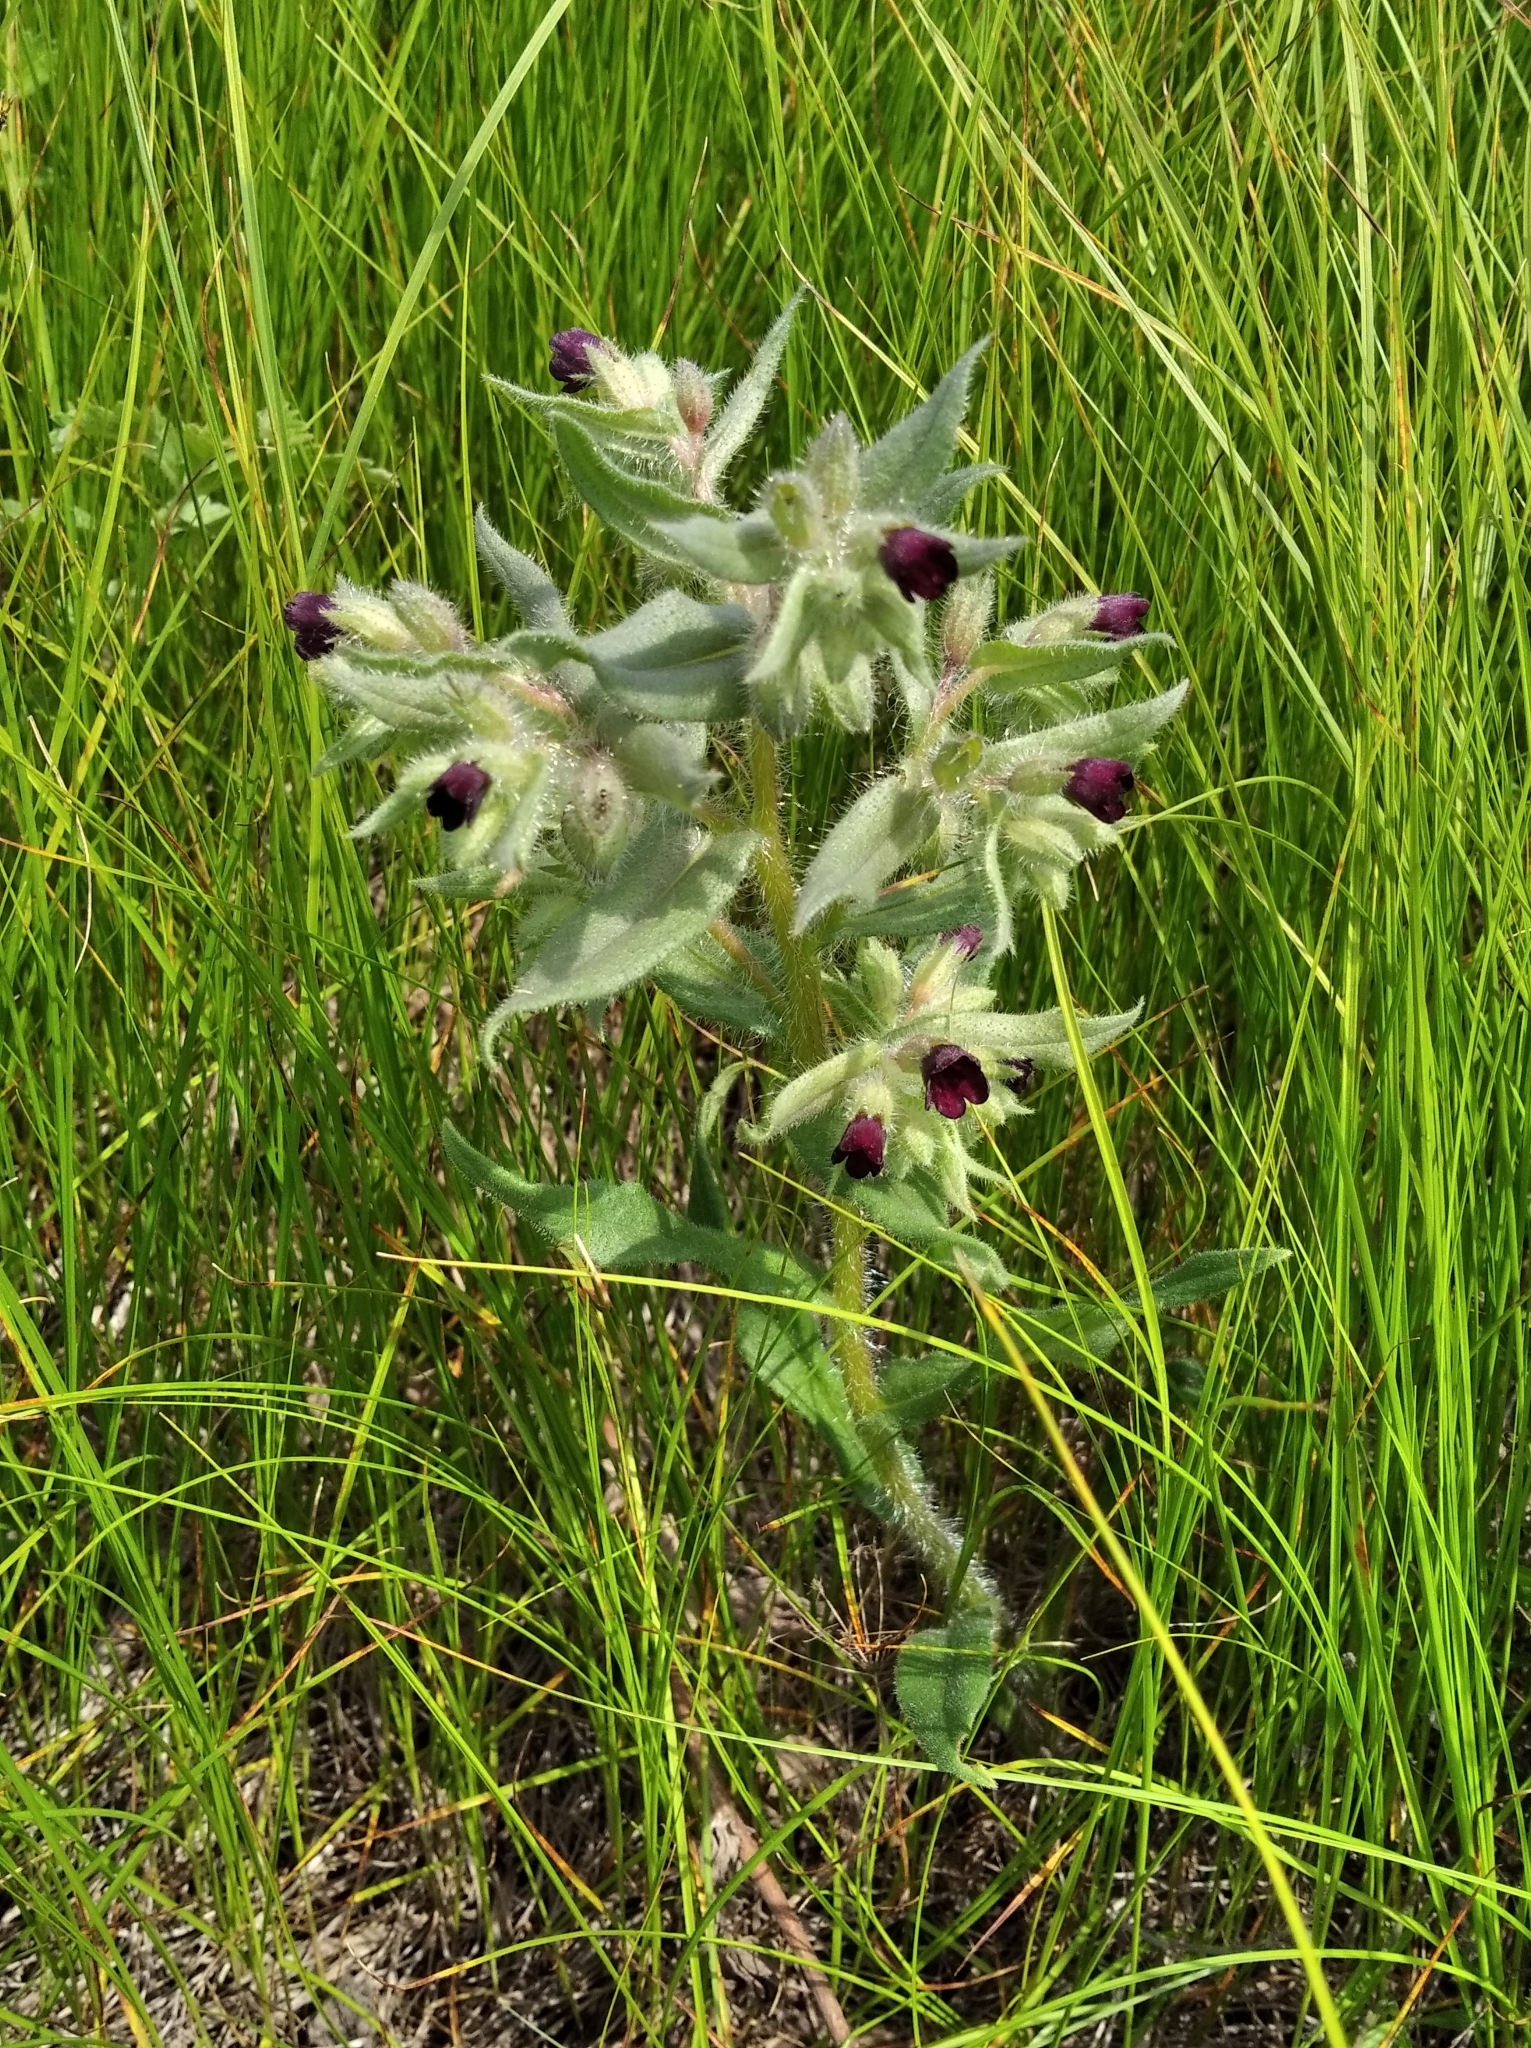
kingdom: Plantae
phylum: Tracheophyta
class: Magnoliopsida
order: Boraginales
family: Boraginaceae
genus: Nonea
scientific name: Nonea pulla
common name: Brown nonea
